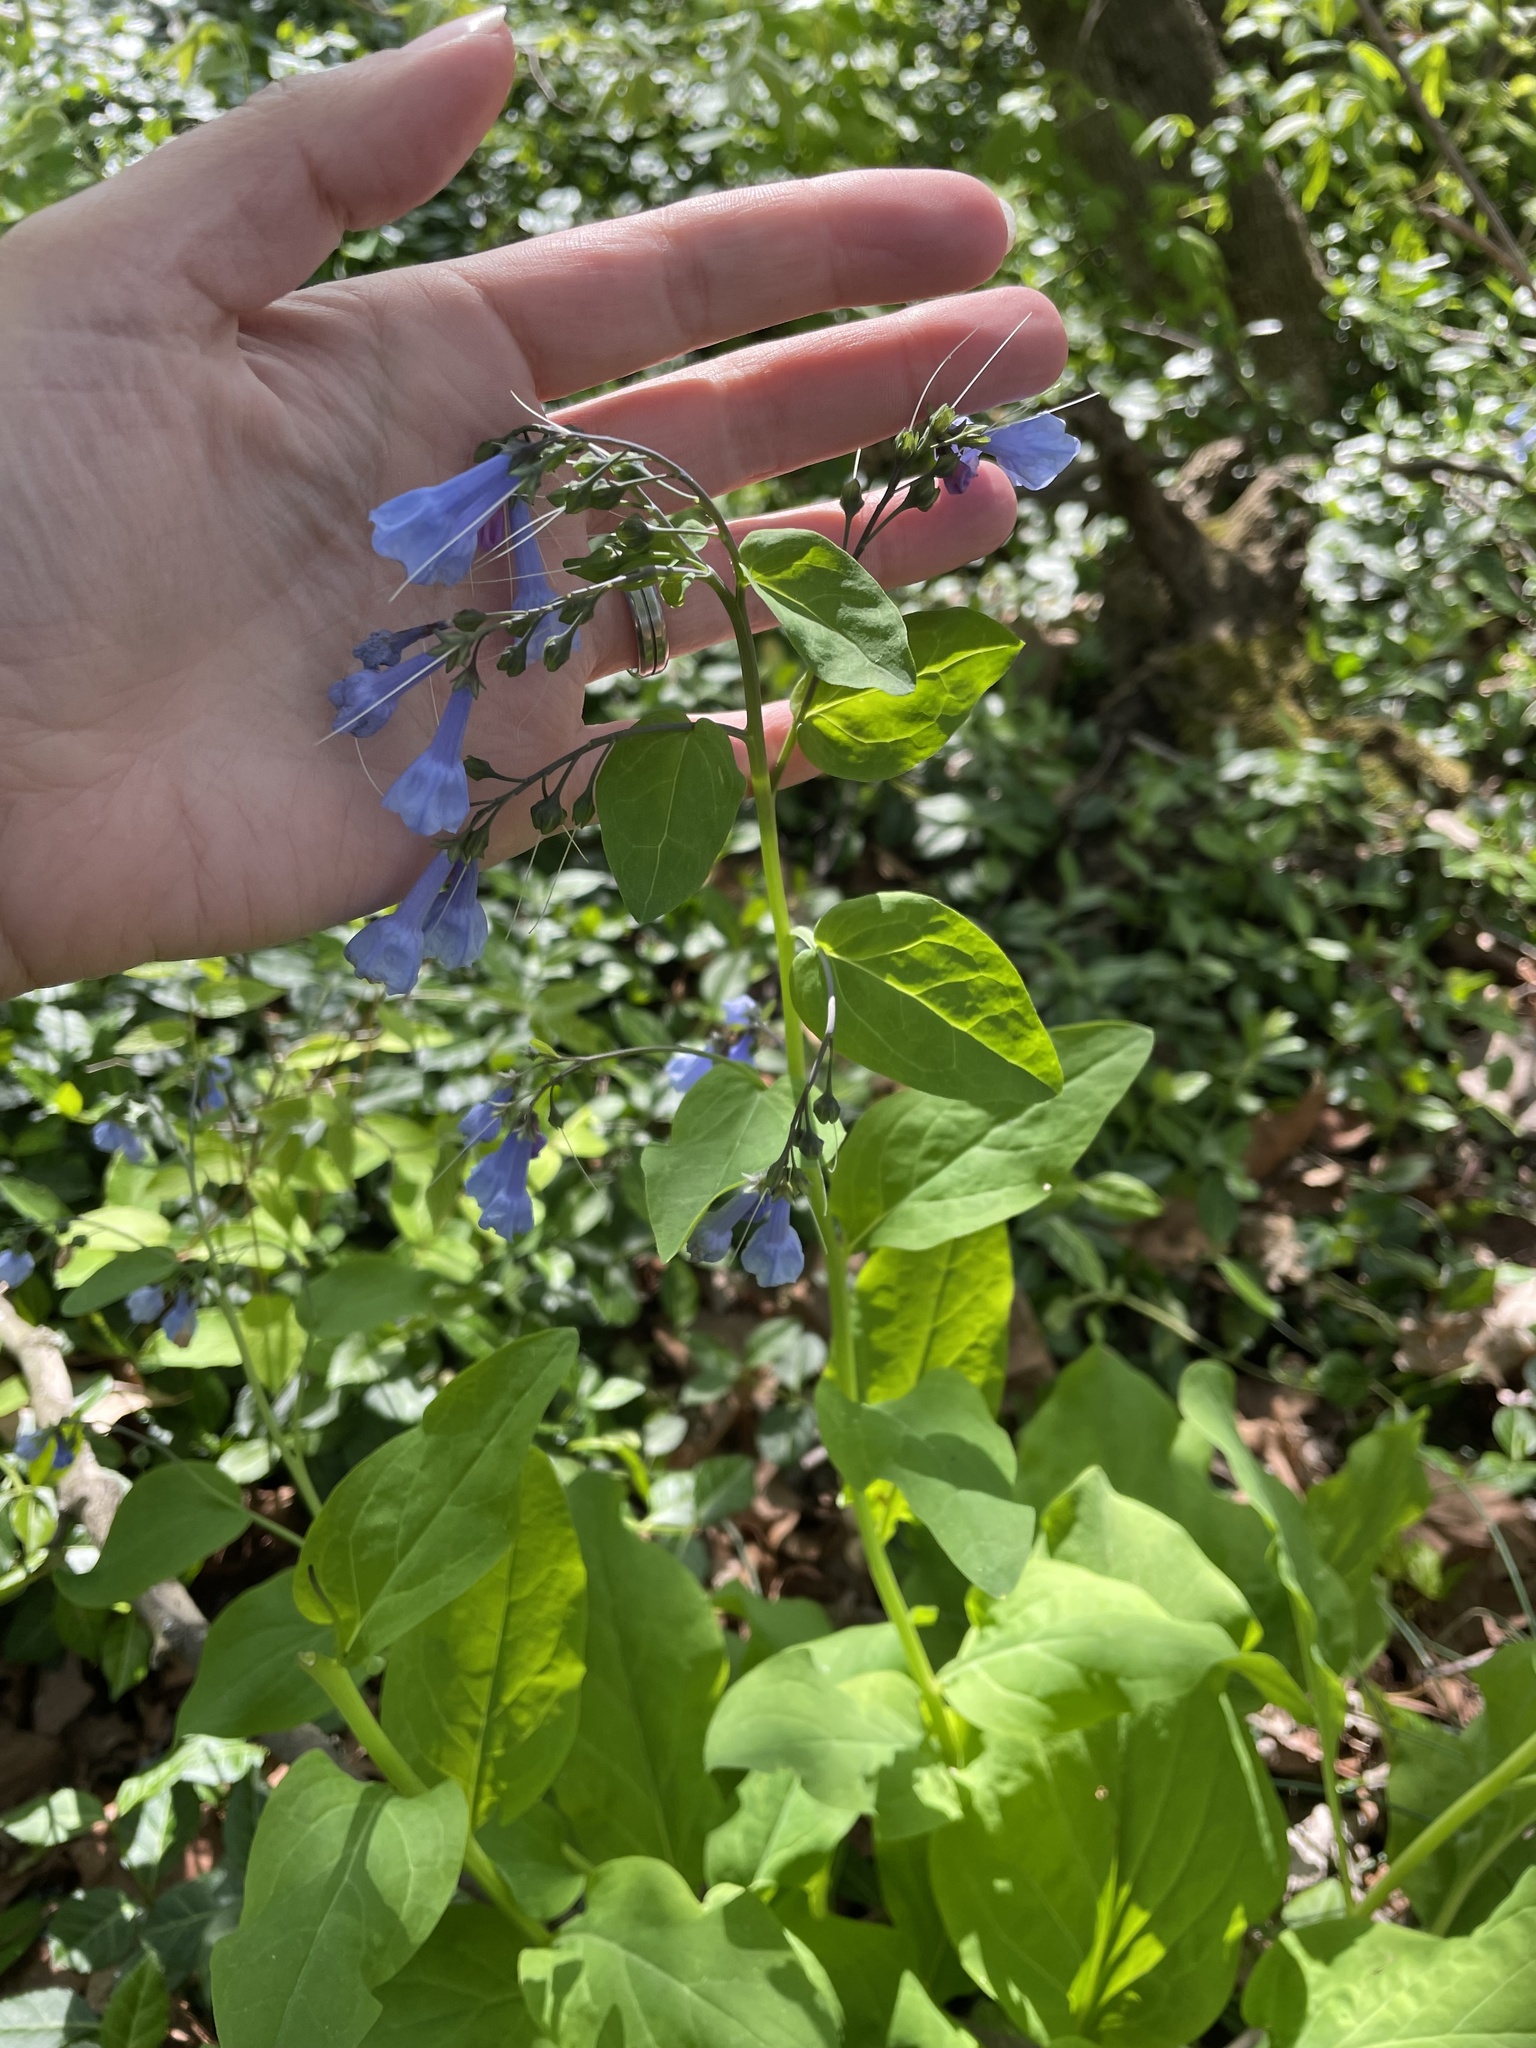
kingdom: Plantae
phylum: Tracheophyta
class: Magnoliopsida
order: Boraginales
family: Boraginaceae
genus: Mertensia
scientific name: Mertensia virginica
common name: Virginia bluebells
